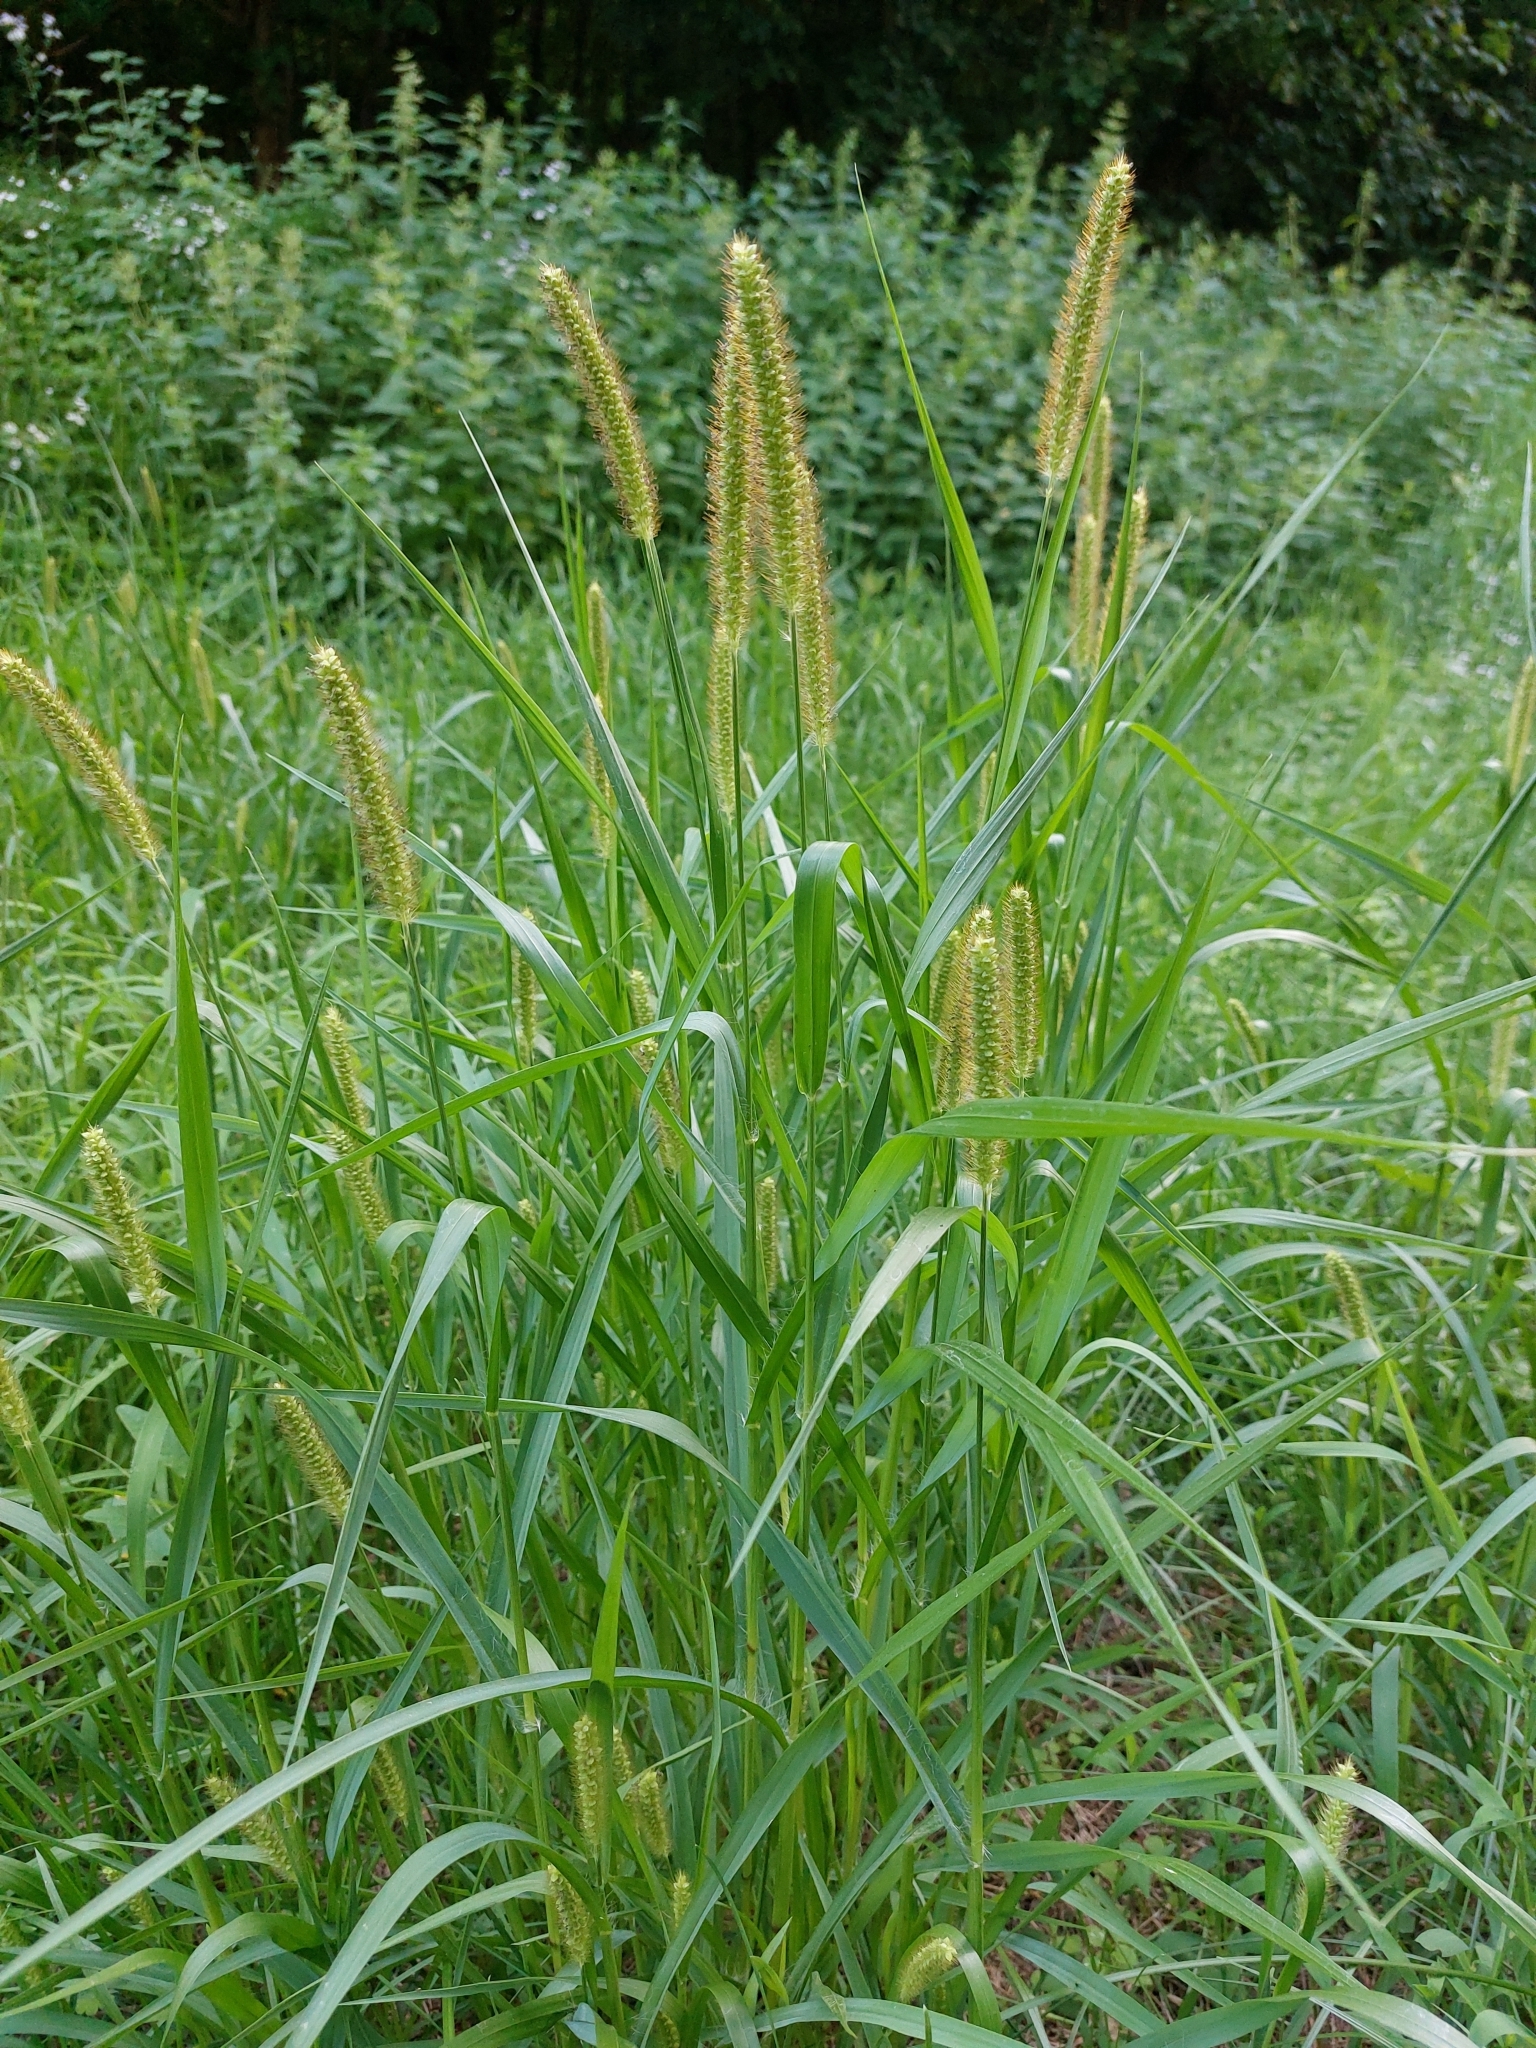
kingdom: Plantae
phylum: Tracheophyta
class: Liliopsida
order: Poales
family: Poaceae
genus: Setaria
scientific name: Setaria pumila
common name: Yellow bristle-grass
